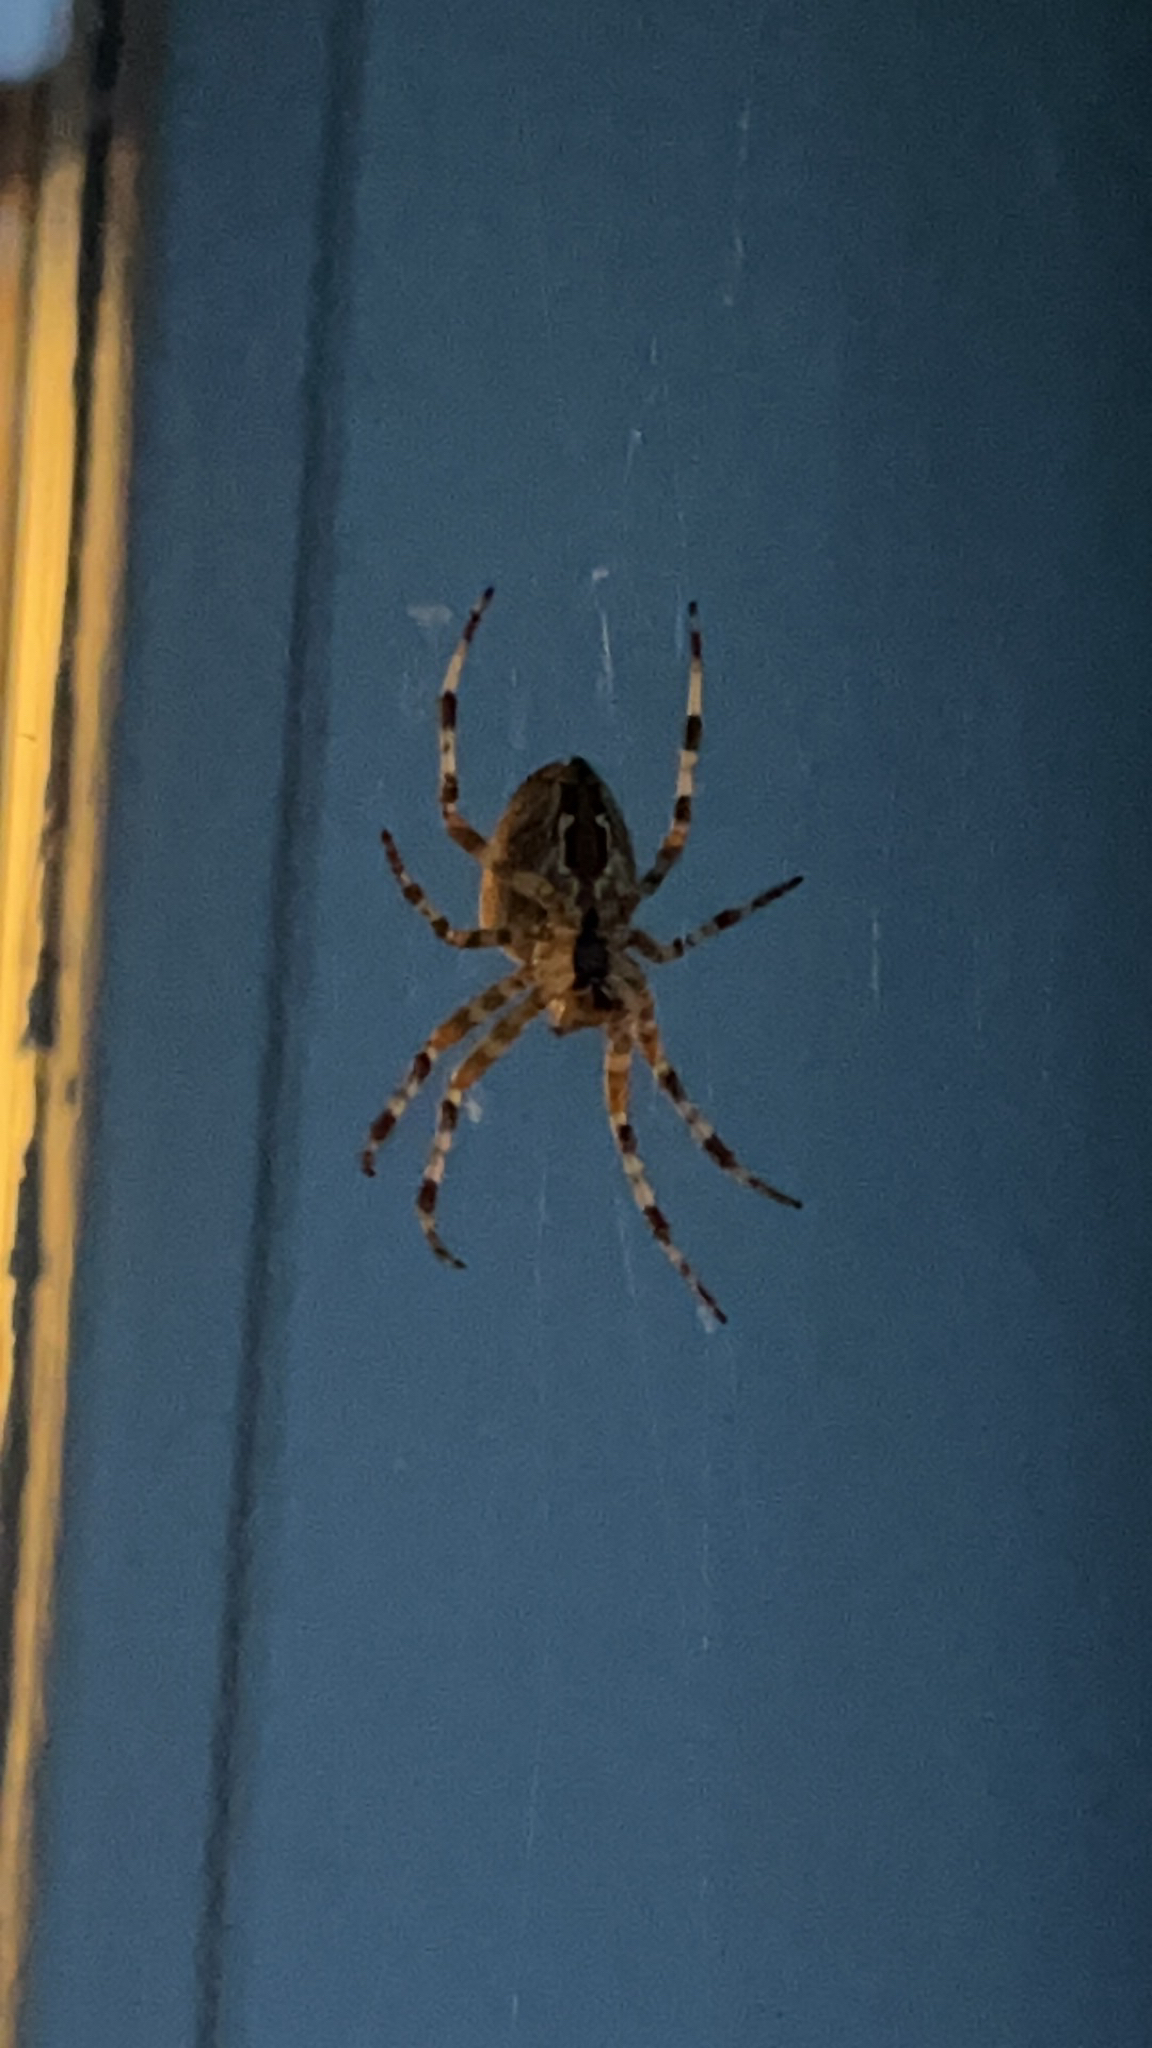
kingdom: Animalia
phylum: Arthropoda
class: Arachnida
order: Araneae
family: Araneidae
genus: Araneus
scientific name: Araneus diadematus
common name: Cross orbweaver
